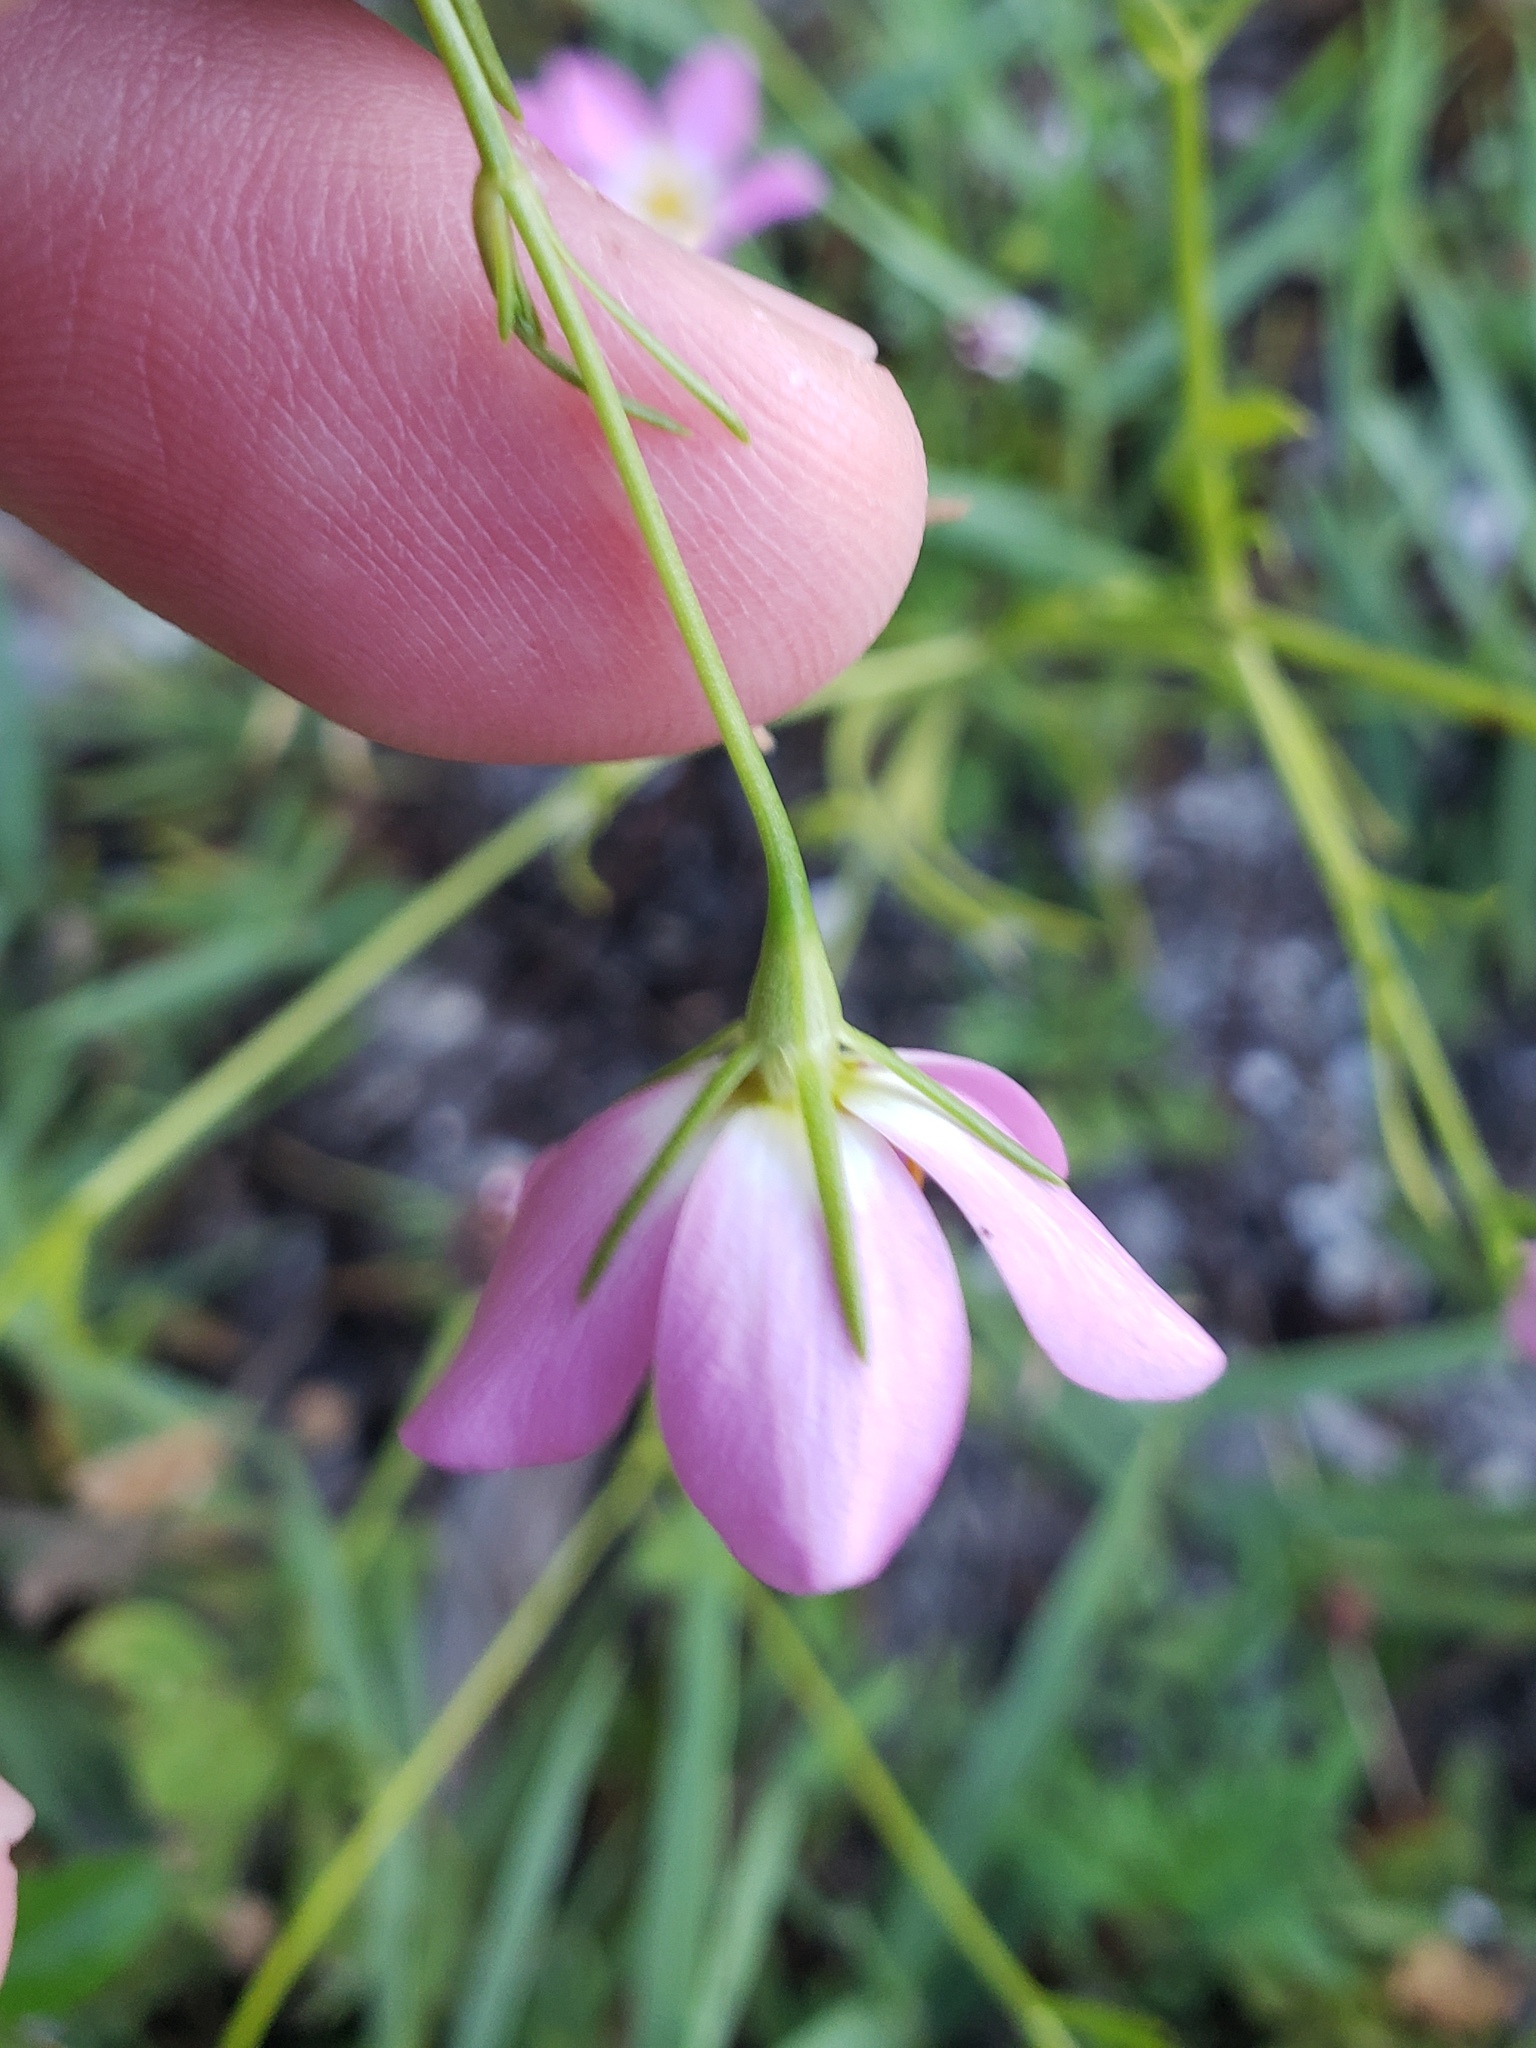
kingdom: Plantae
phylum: Tracheophyta
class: Magnoliopsida
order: Gentianales
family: Gentianaceae
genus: Sabatia
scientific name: Sabatia stellaris
